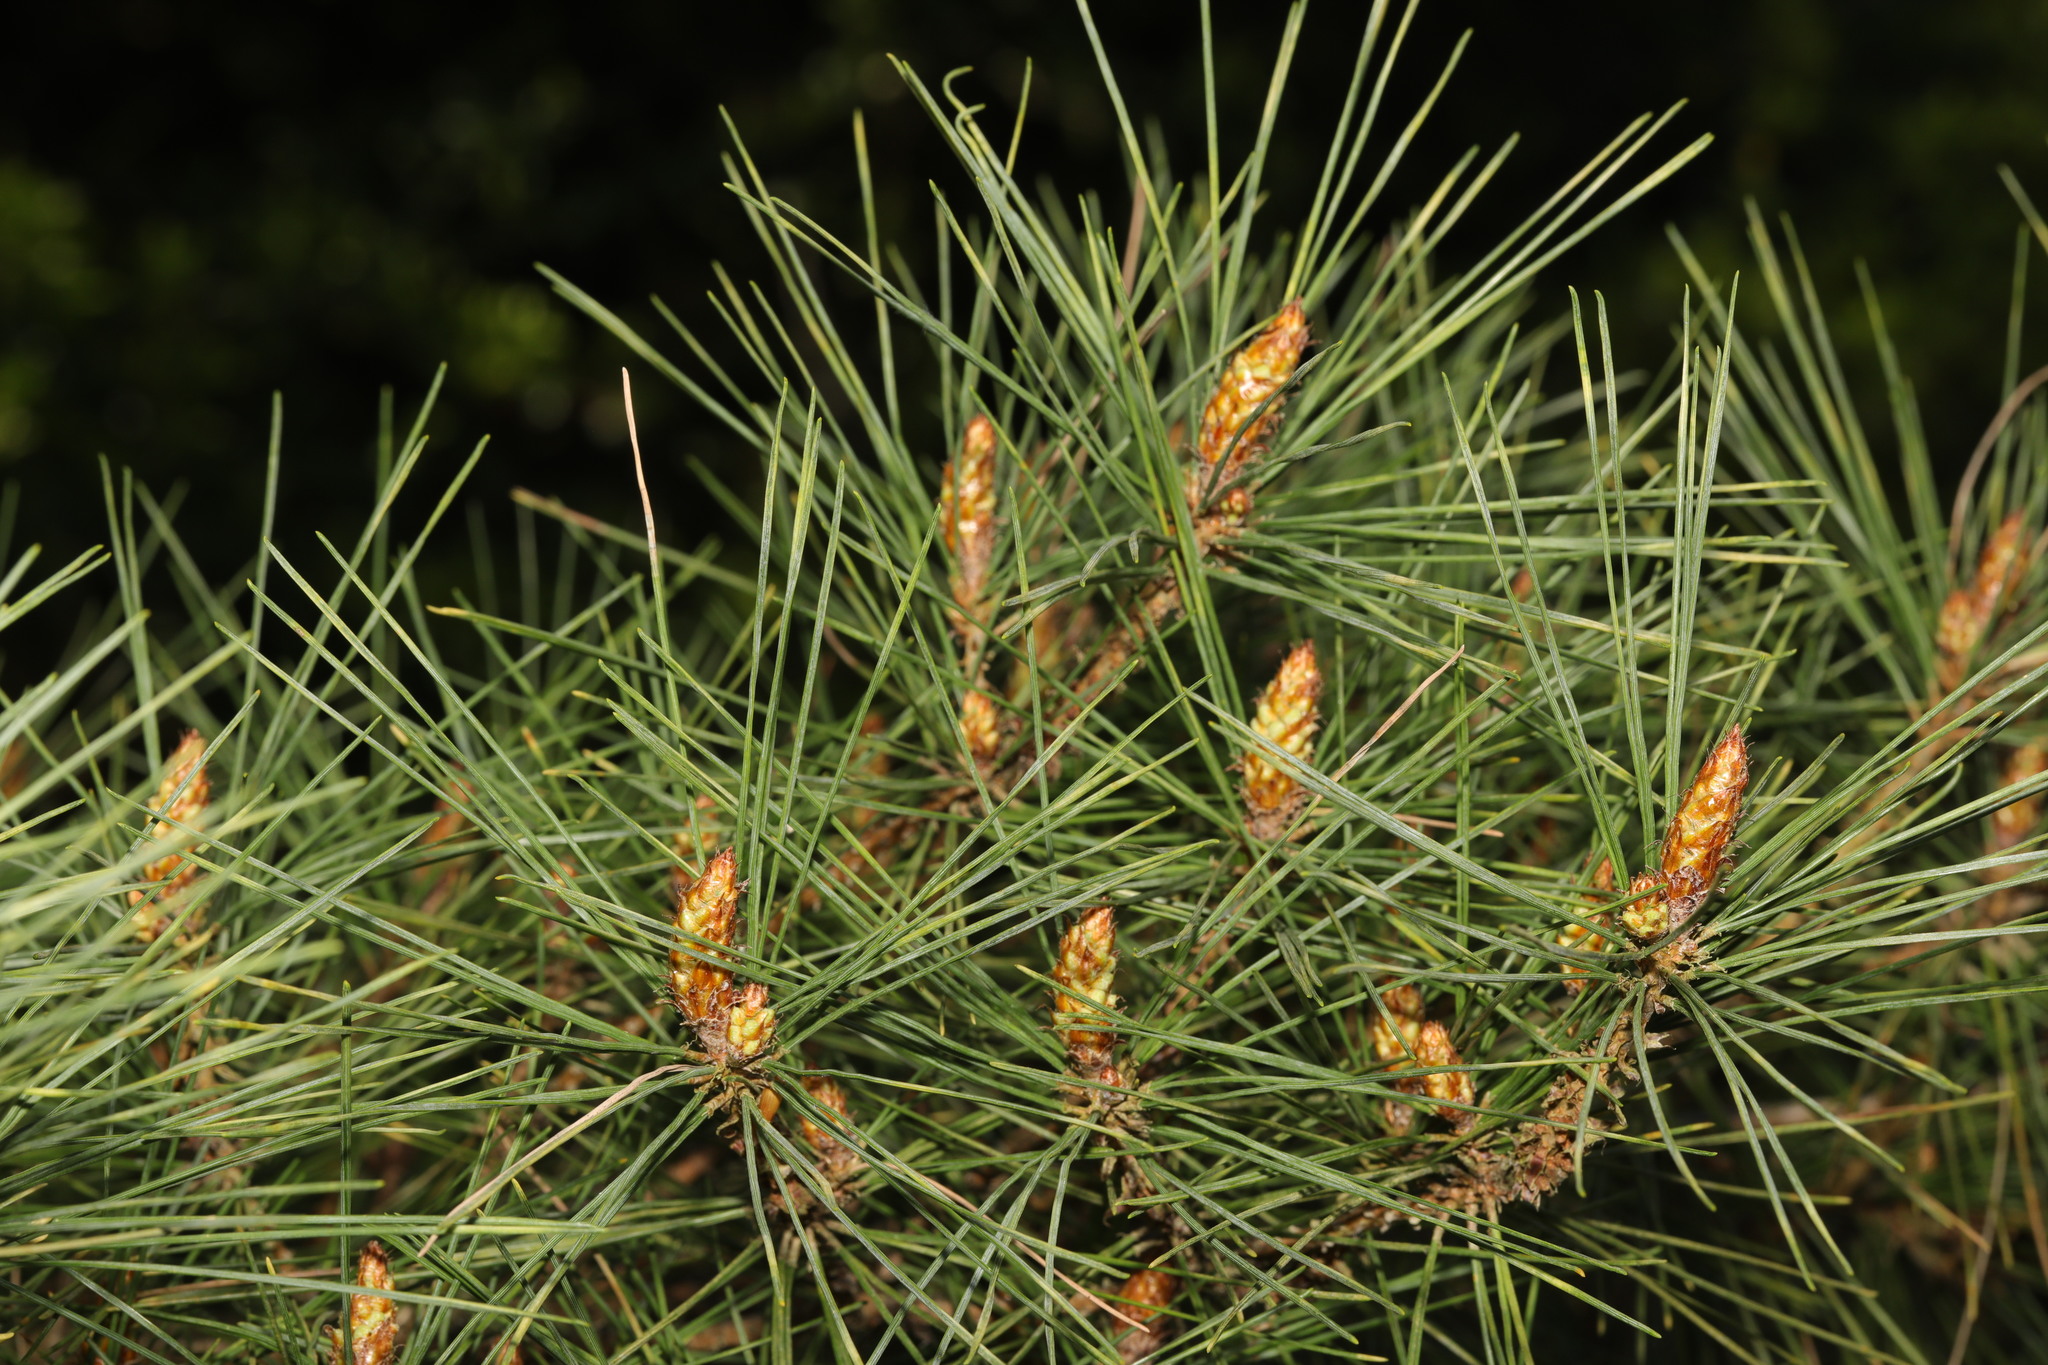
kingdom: Plantae
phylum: Tracheophyta
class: Pinopsida
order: Pinales
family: Pinaceae
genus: Pinus
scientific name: Pinus sylvestris
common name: Scots pine
